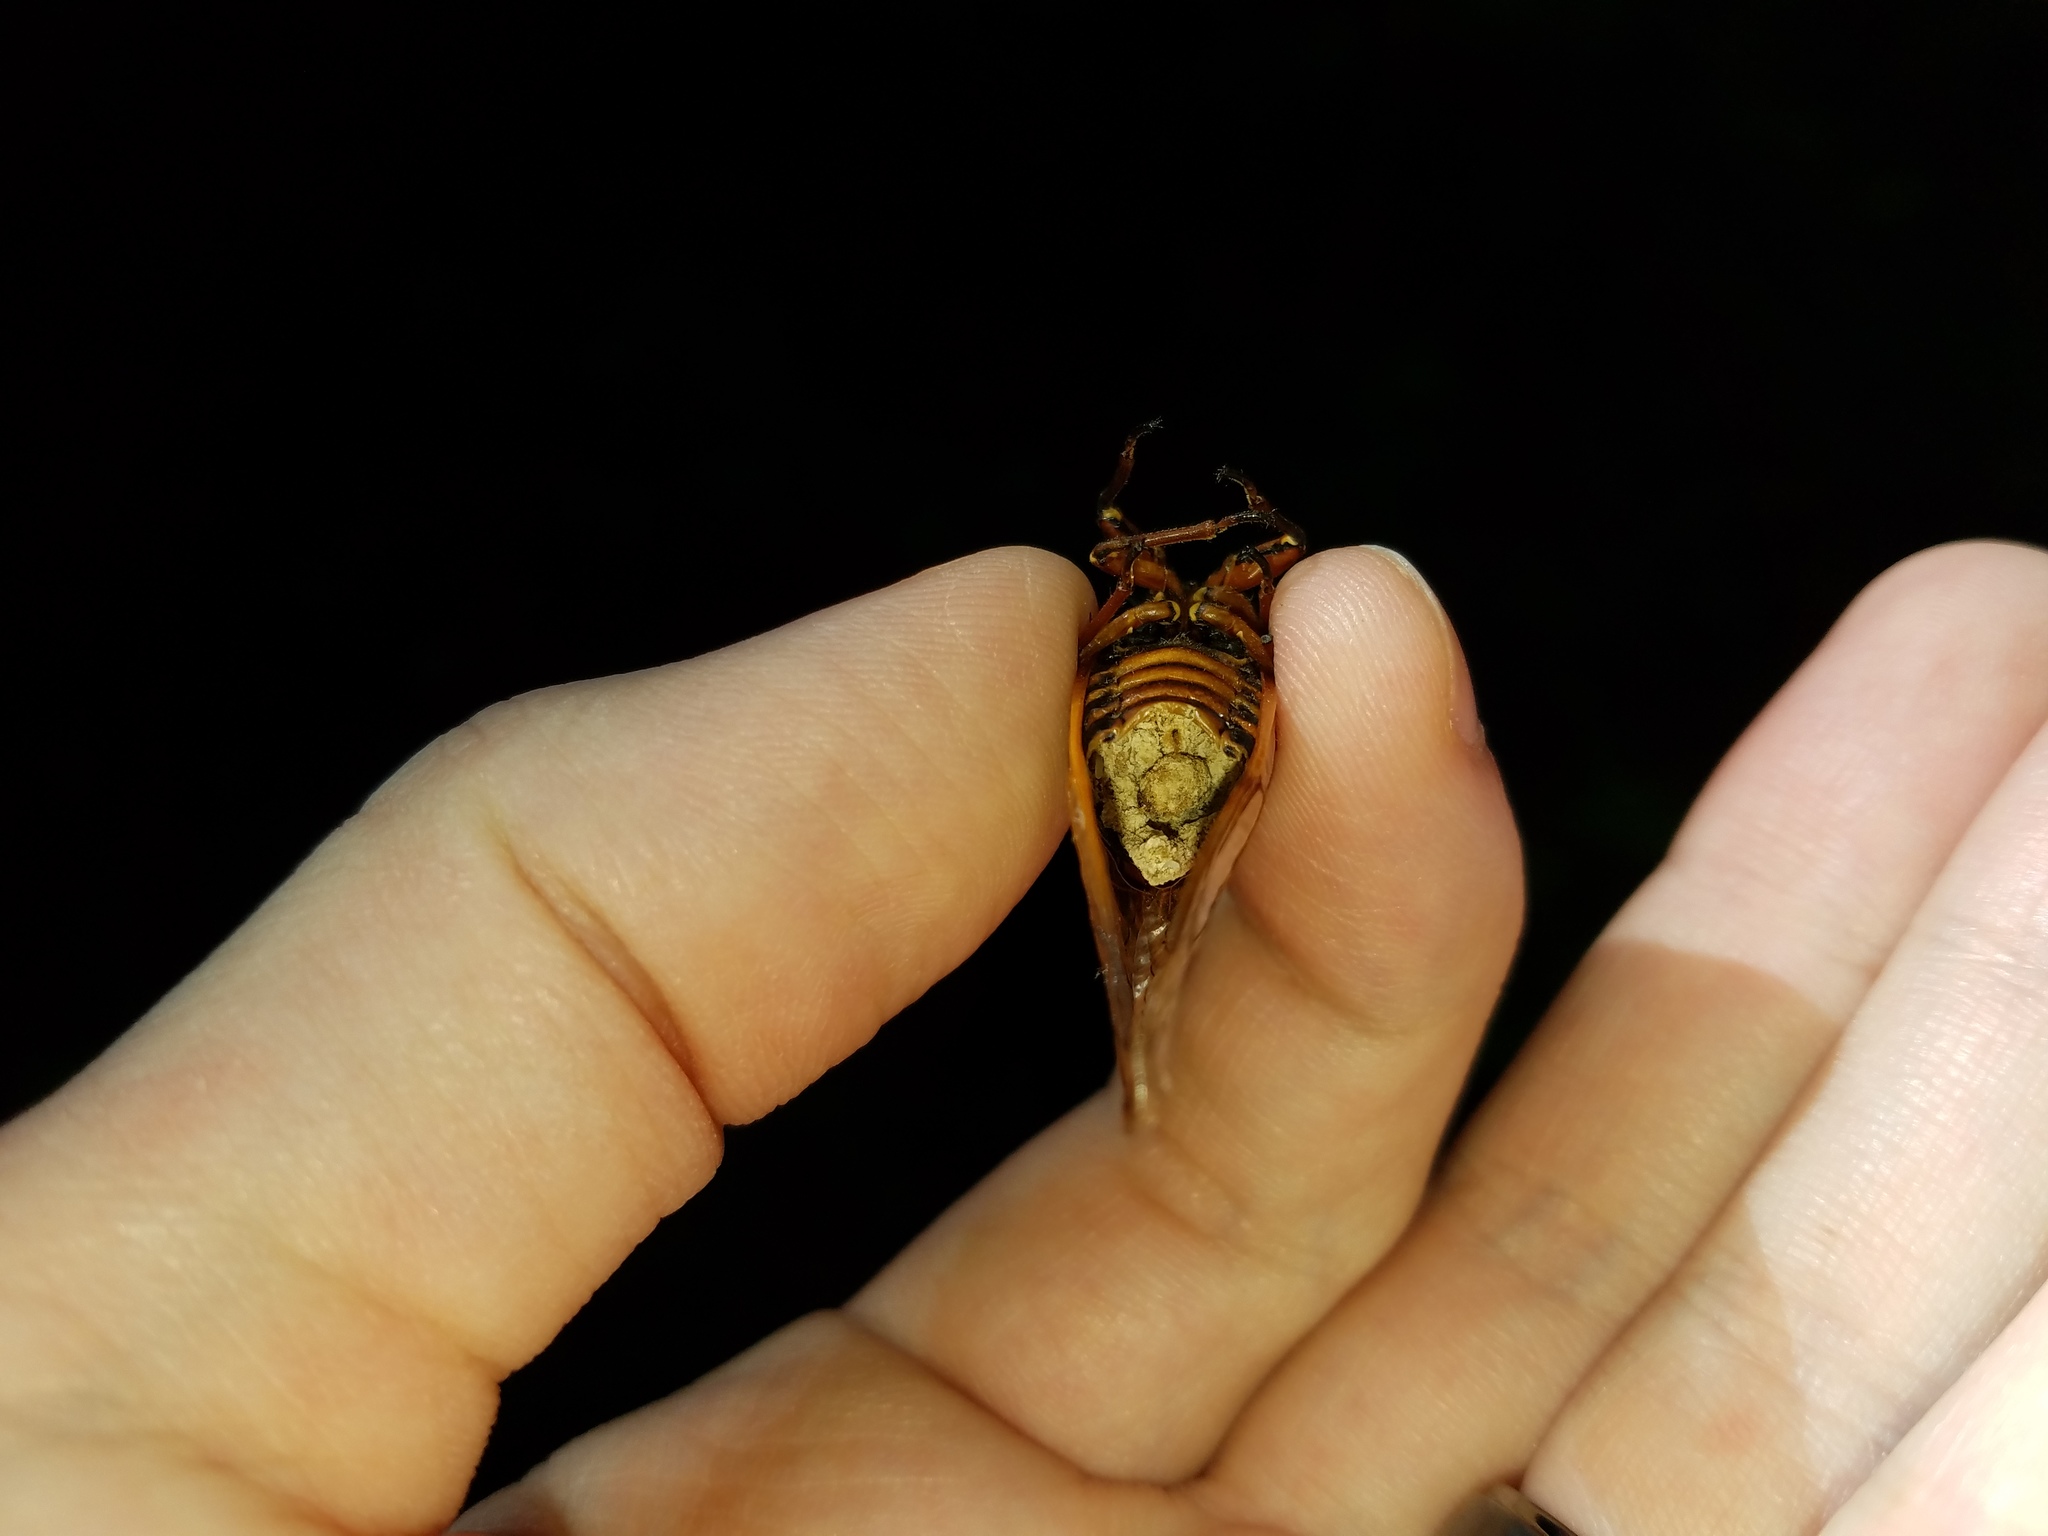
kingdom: Fungi
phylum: Entomophthoromycota
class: Entomophthoromycetes
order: Entomophthorales
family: Entomophthoraceae
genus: Massospora
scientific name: Massospora cicadina
